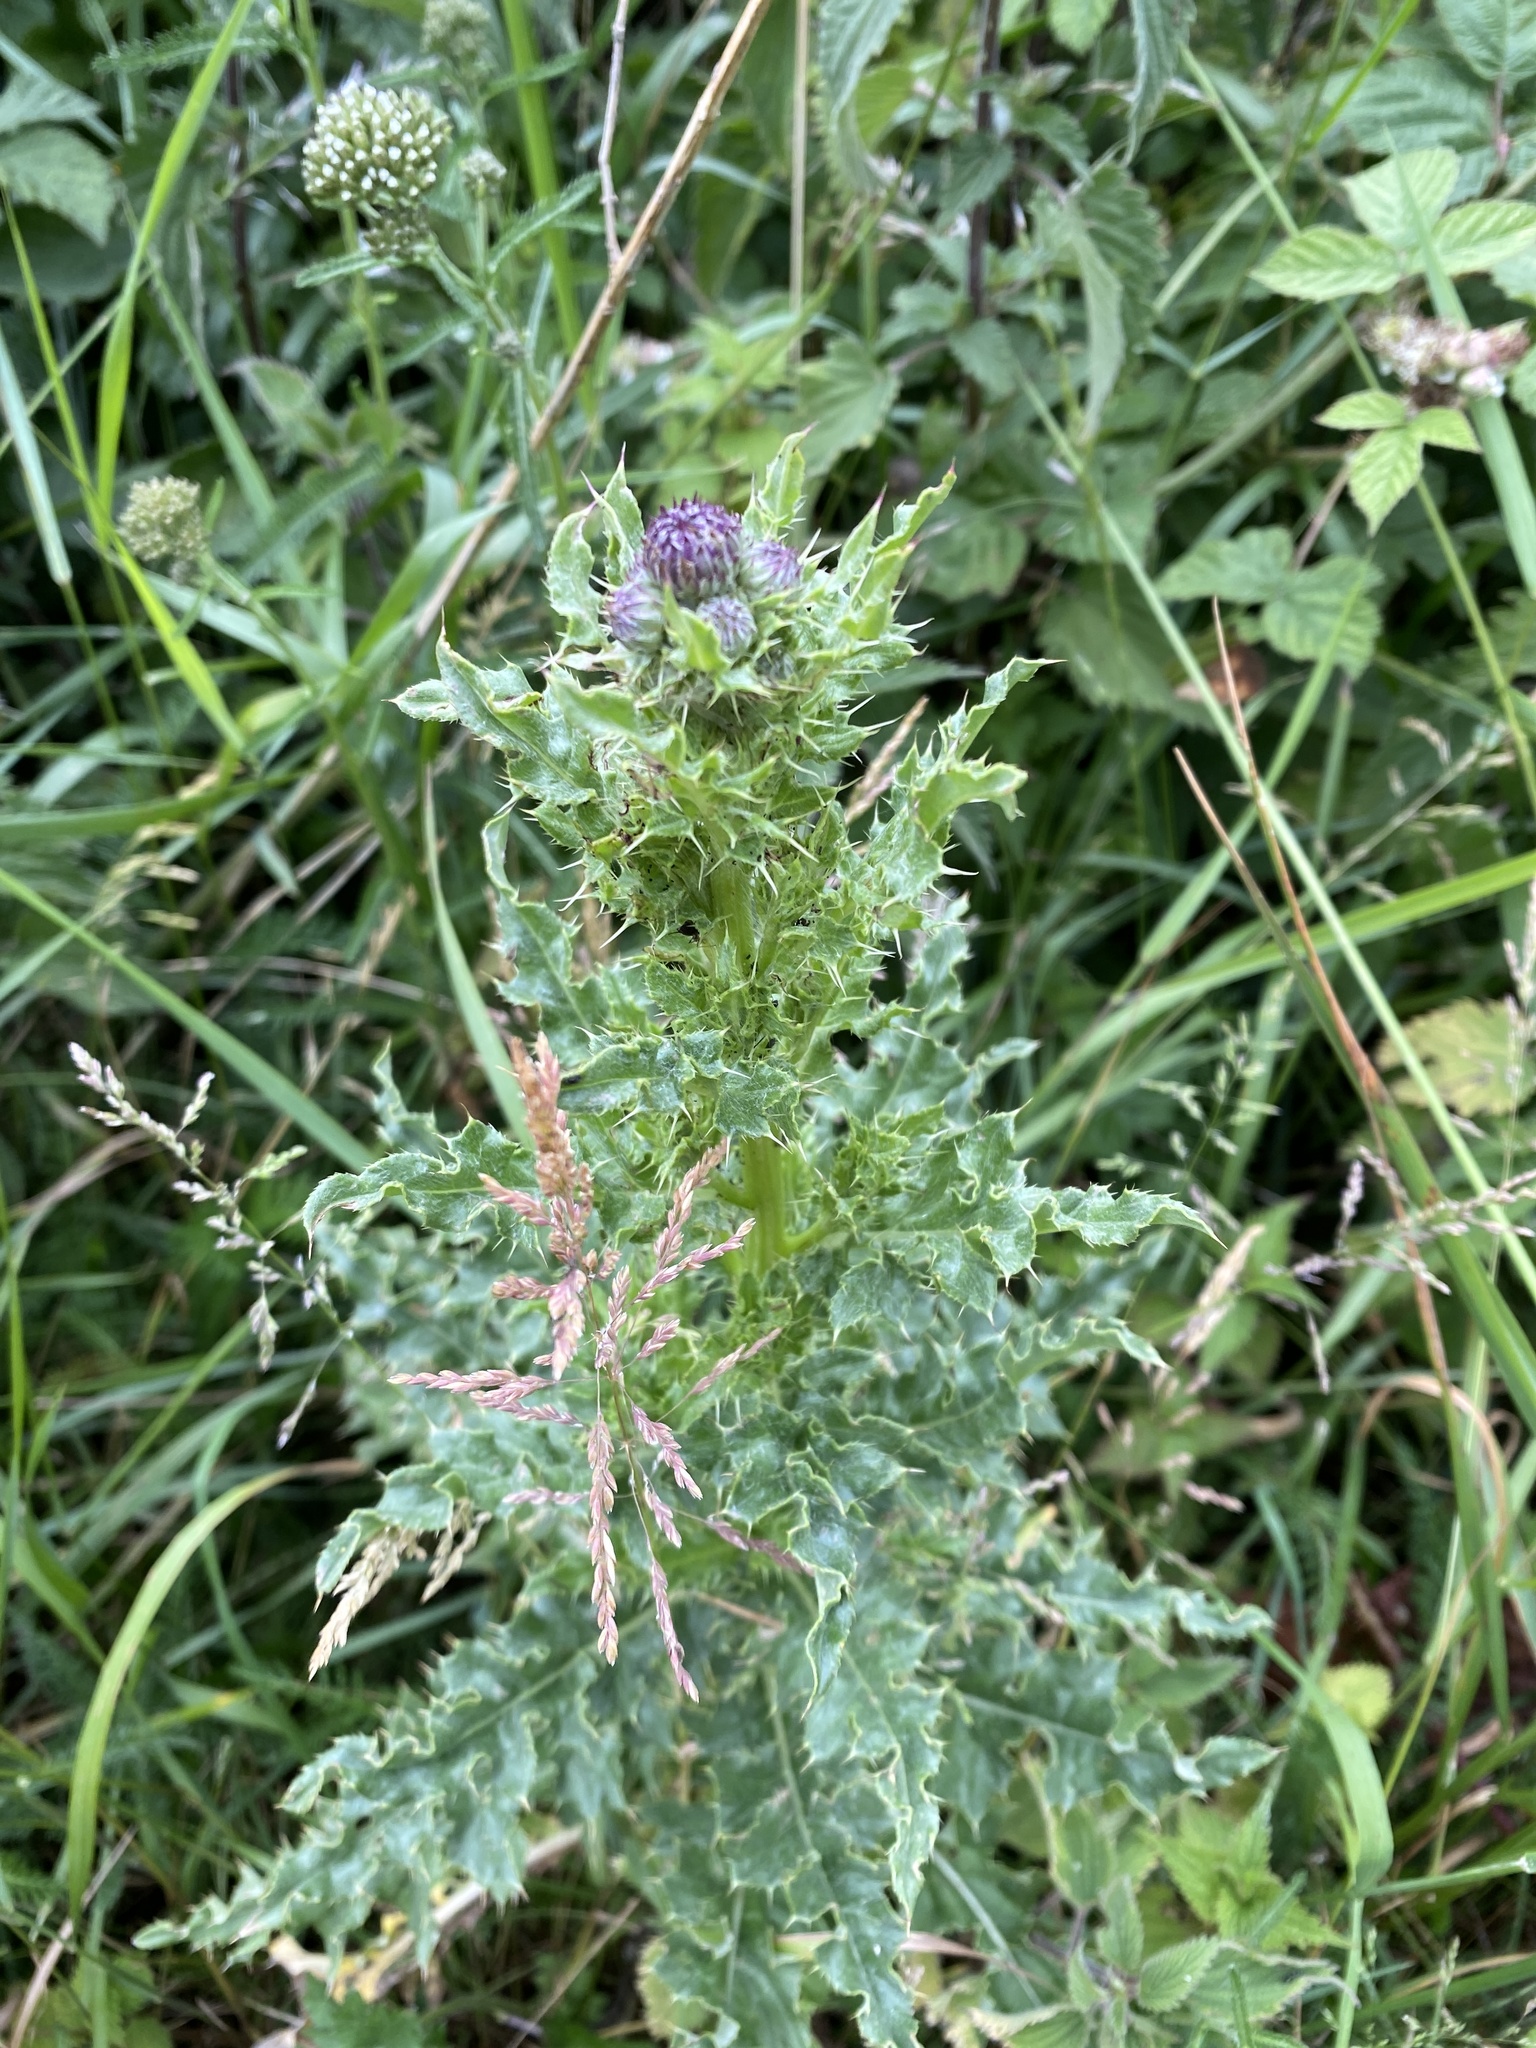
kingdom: Plantae
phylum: Tracheophyta
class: Magnoliopsida
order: Asterales
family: Asteraceae
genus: Cirsium
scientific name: Cirsium arvense
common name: Creeping thistle
